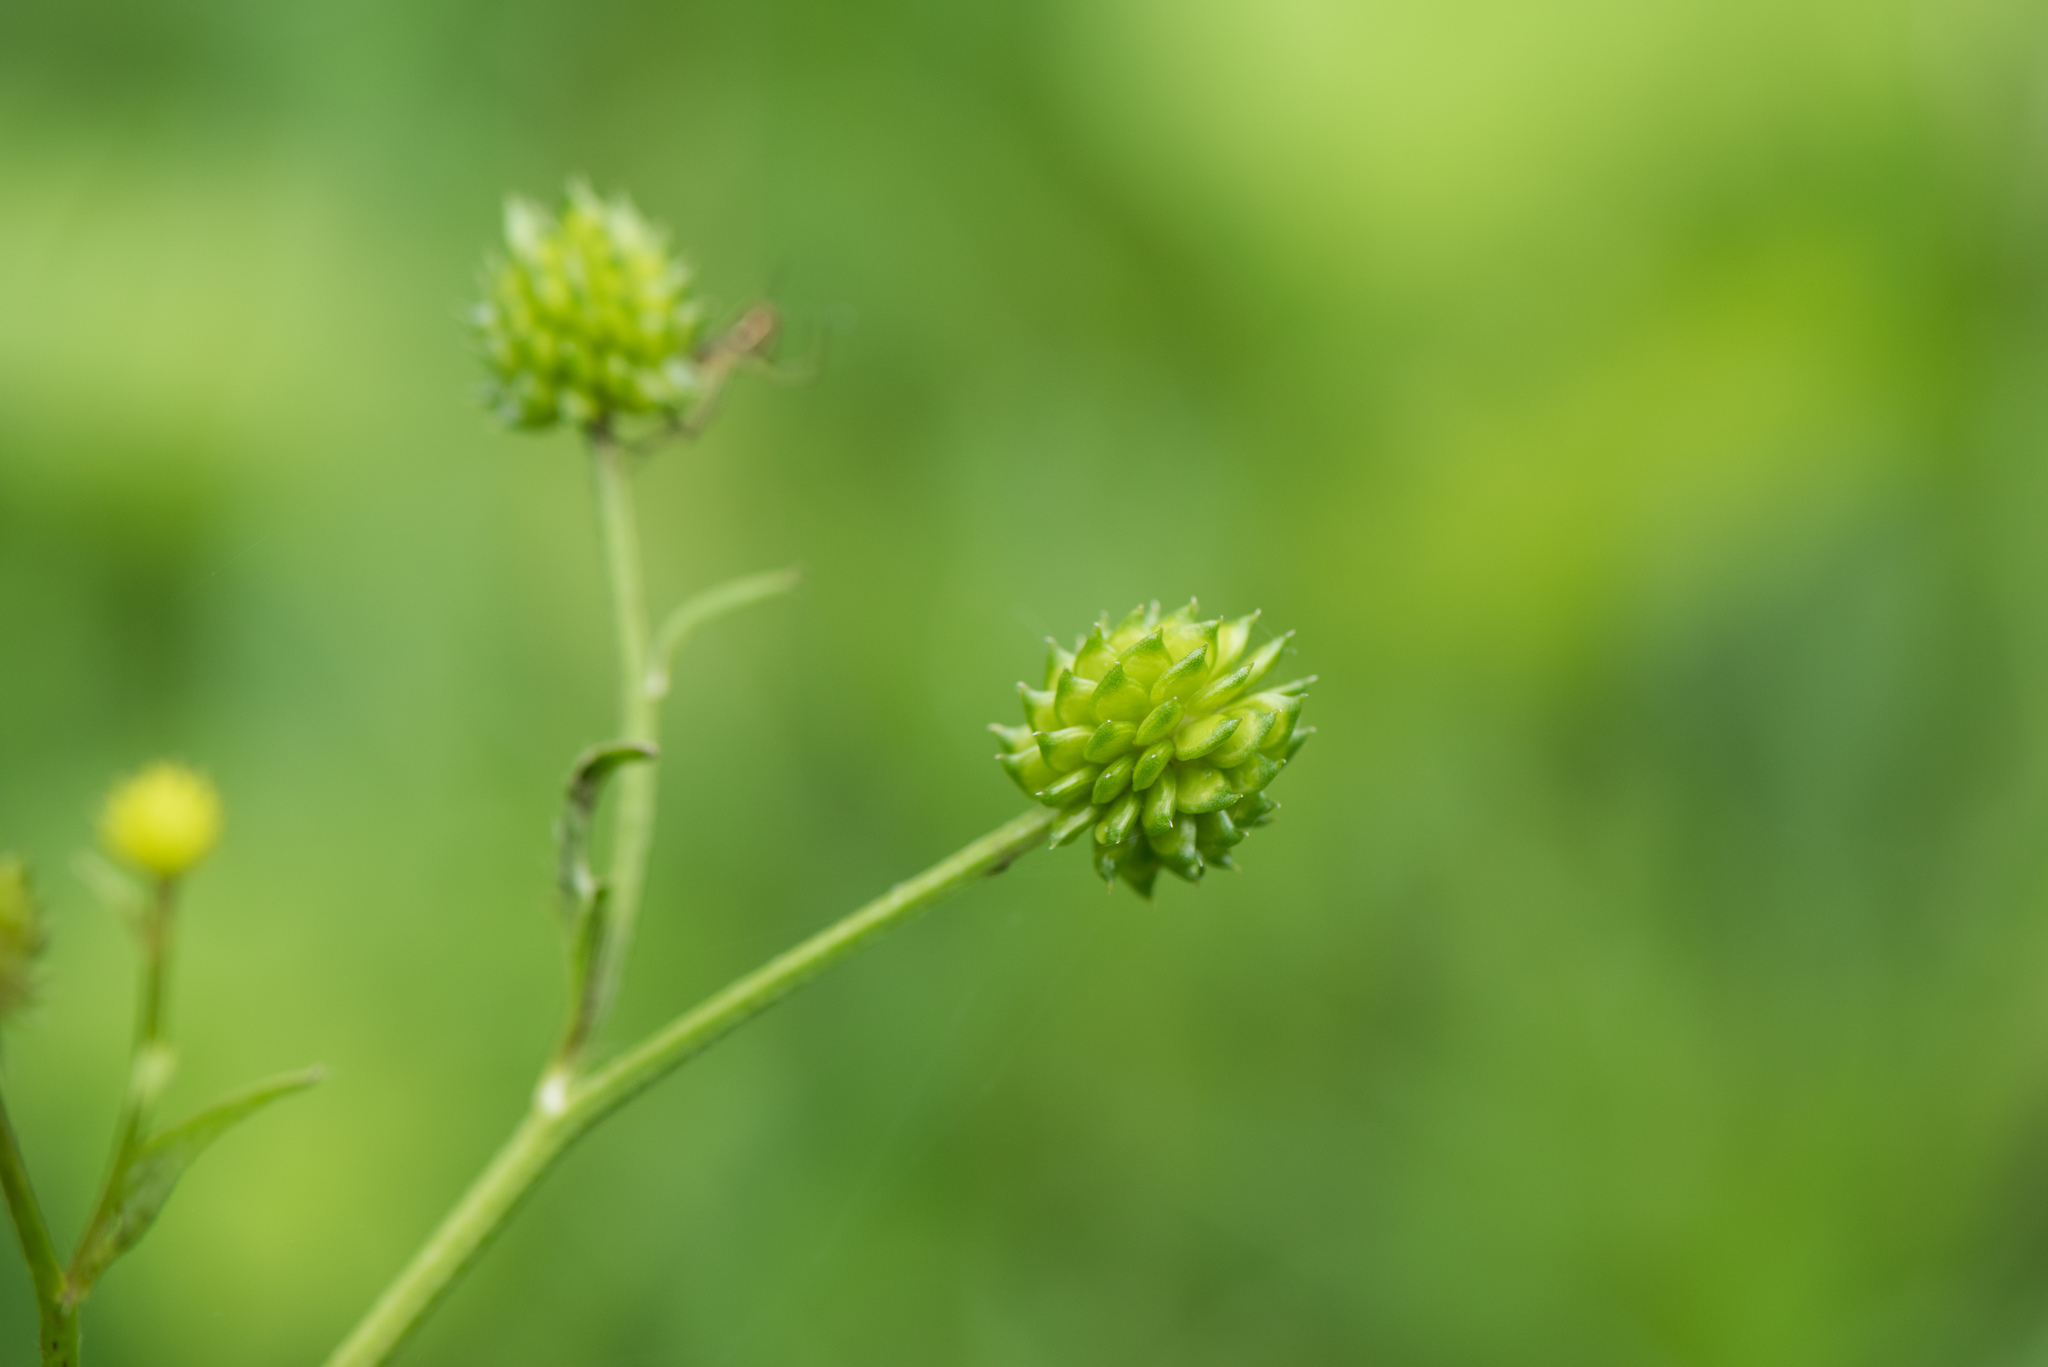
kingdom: Plantae
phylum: Tracheophyta
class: Magnoliopsida
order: Ranunculales
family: Ranunculaceae
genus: Ranunculus
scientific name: Ranunculus cantoniensis
